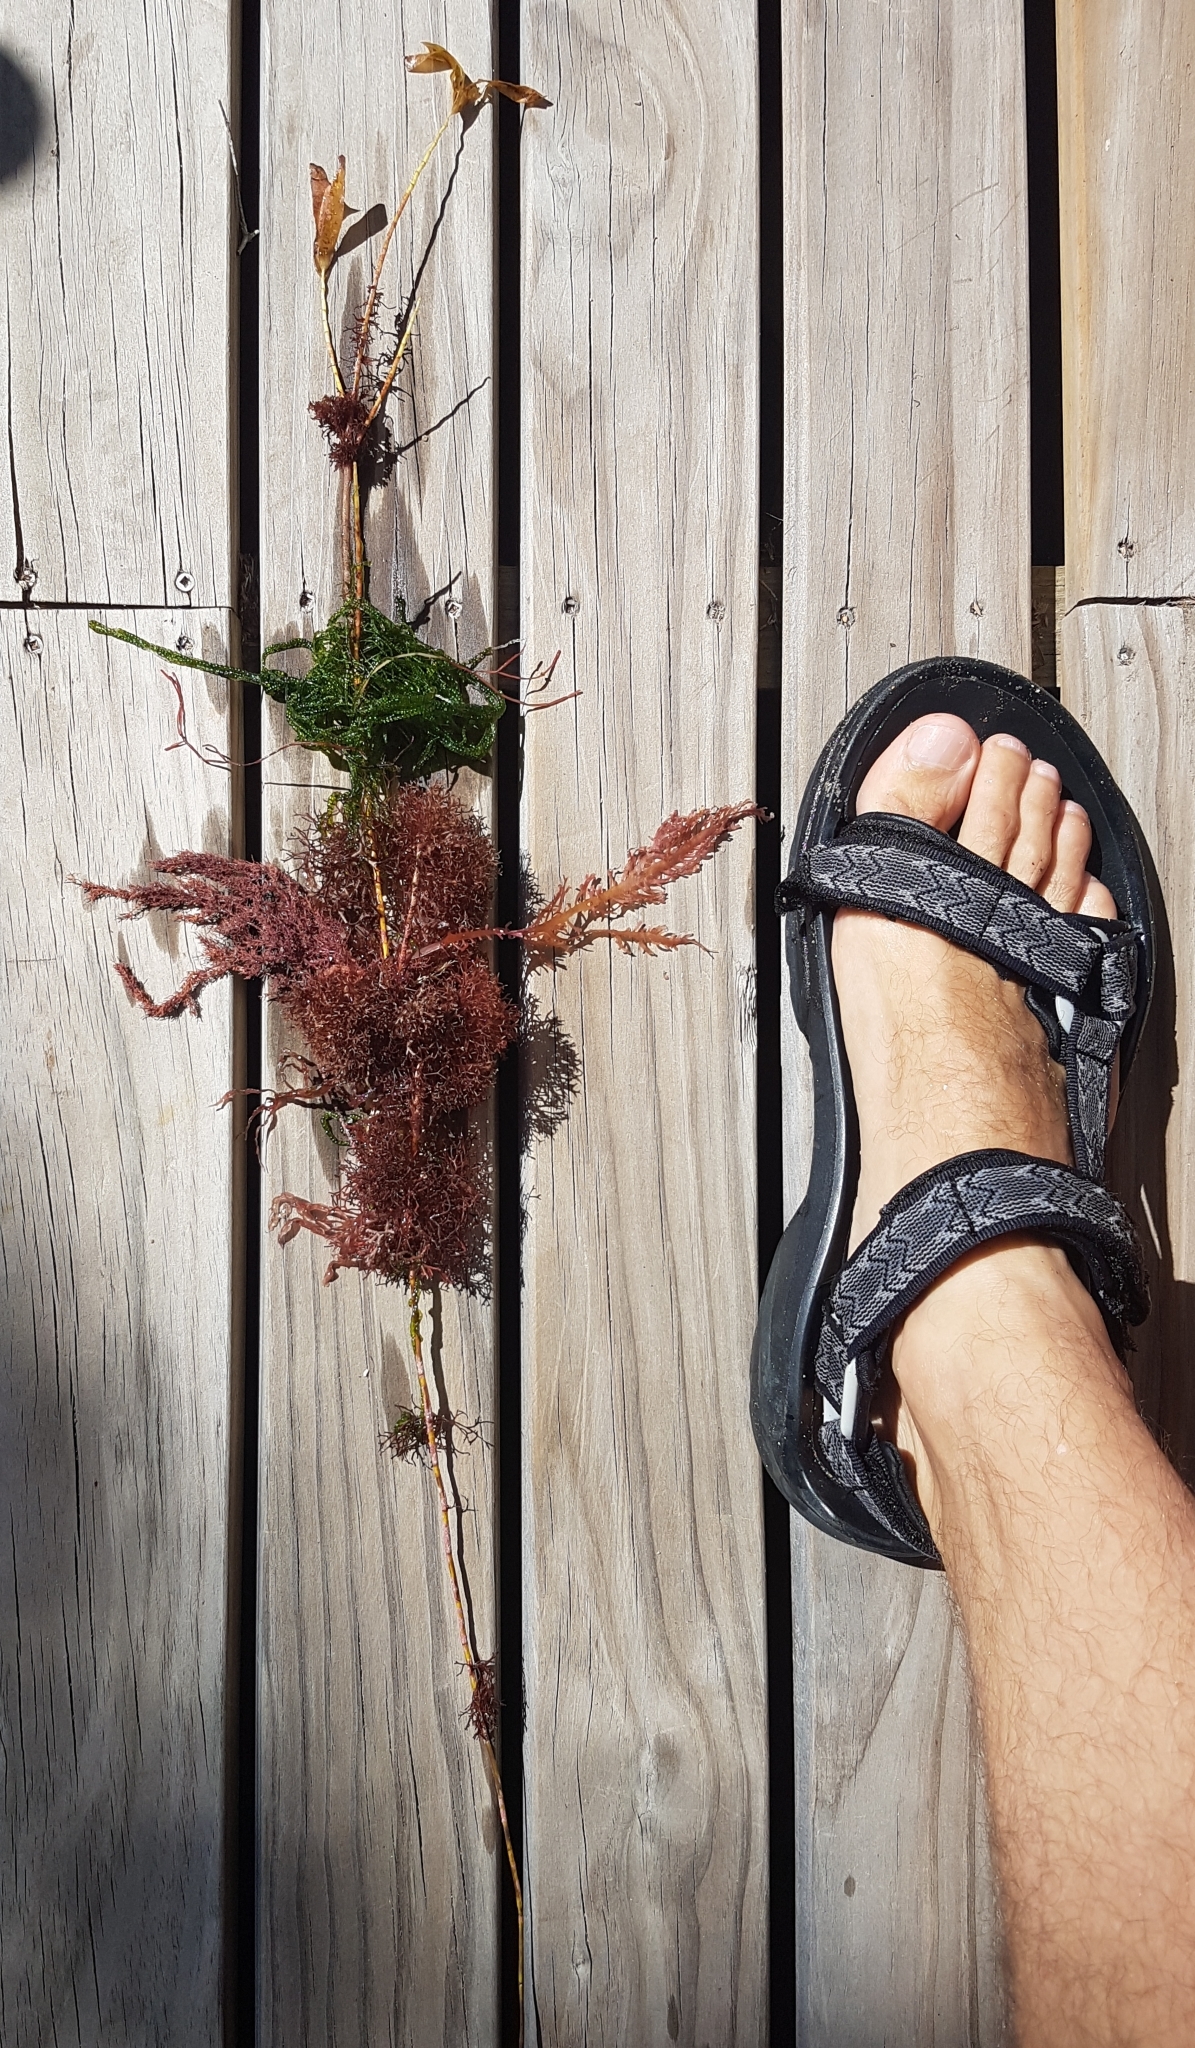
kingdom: Plantae
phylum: Tracheophyta
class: Liliopsida
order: Alismatales
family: Cymodoceaceae
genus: Amphibolis
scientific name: Amphibolis antarctica
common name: Species code: aa
